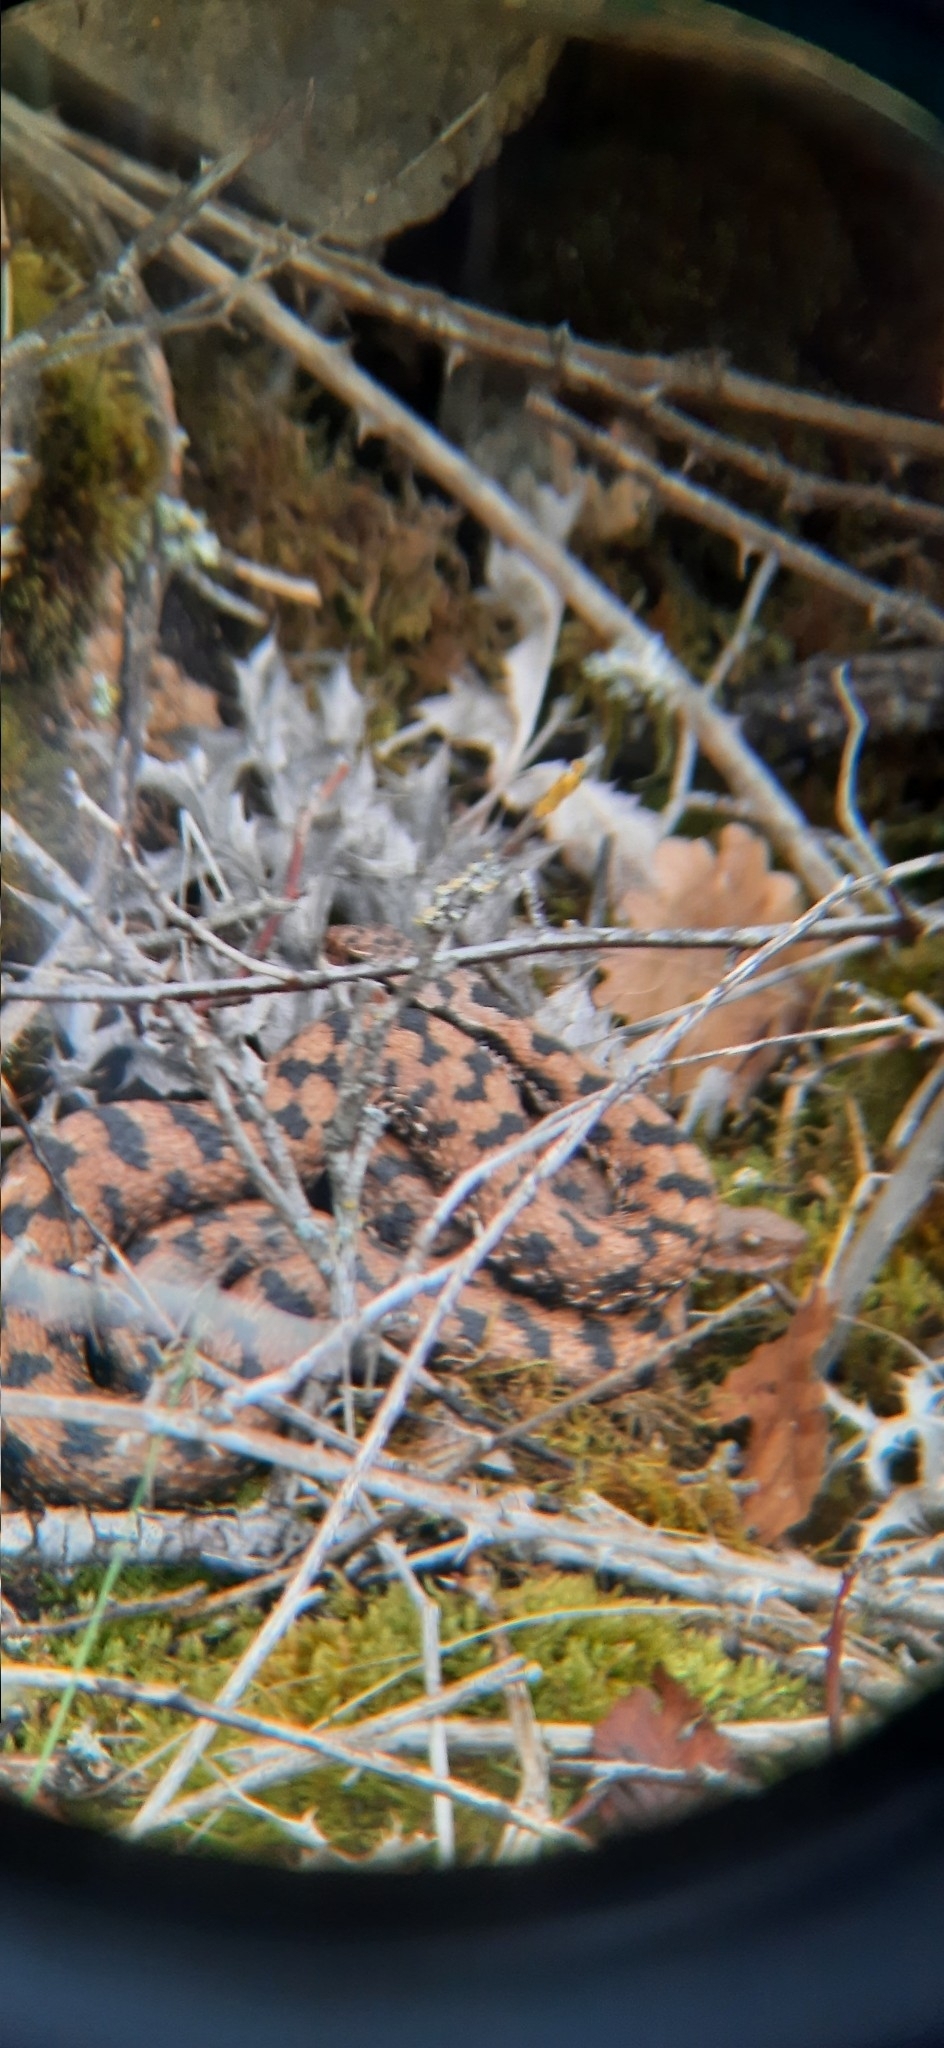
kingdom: Animalia
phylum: Chordata
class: Squamata
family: Viperidae
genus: Vipera
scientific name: Vipera aspis
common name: Asp viper
